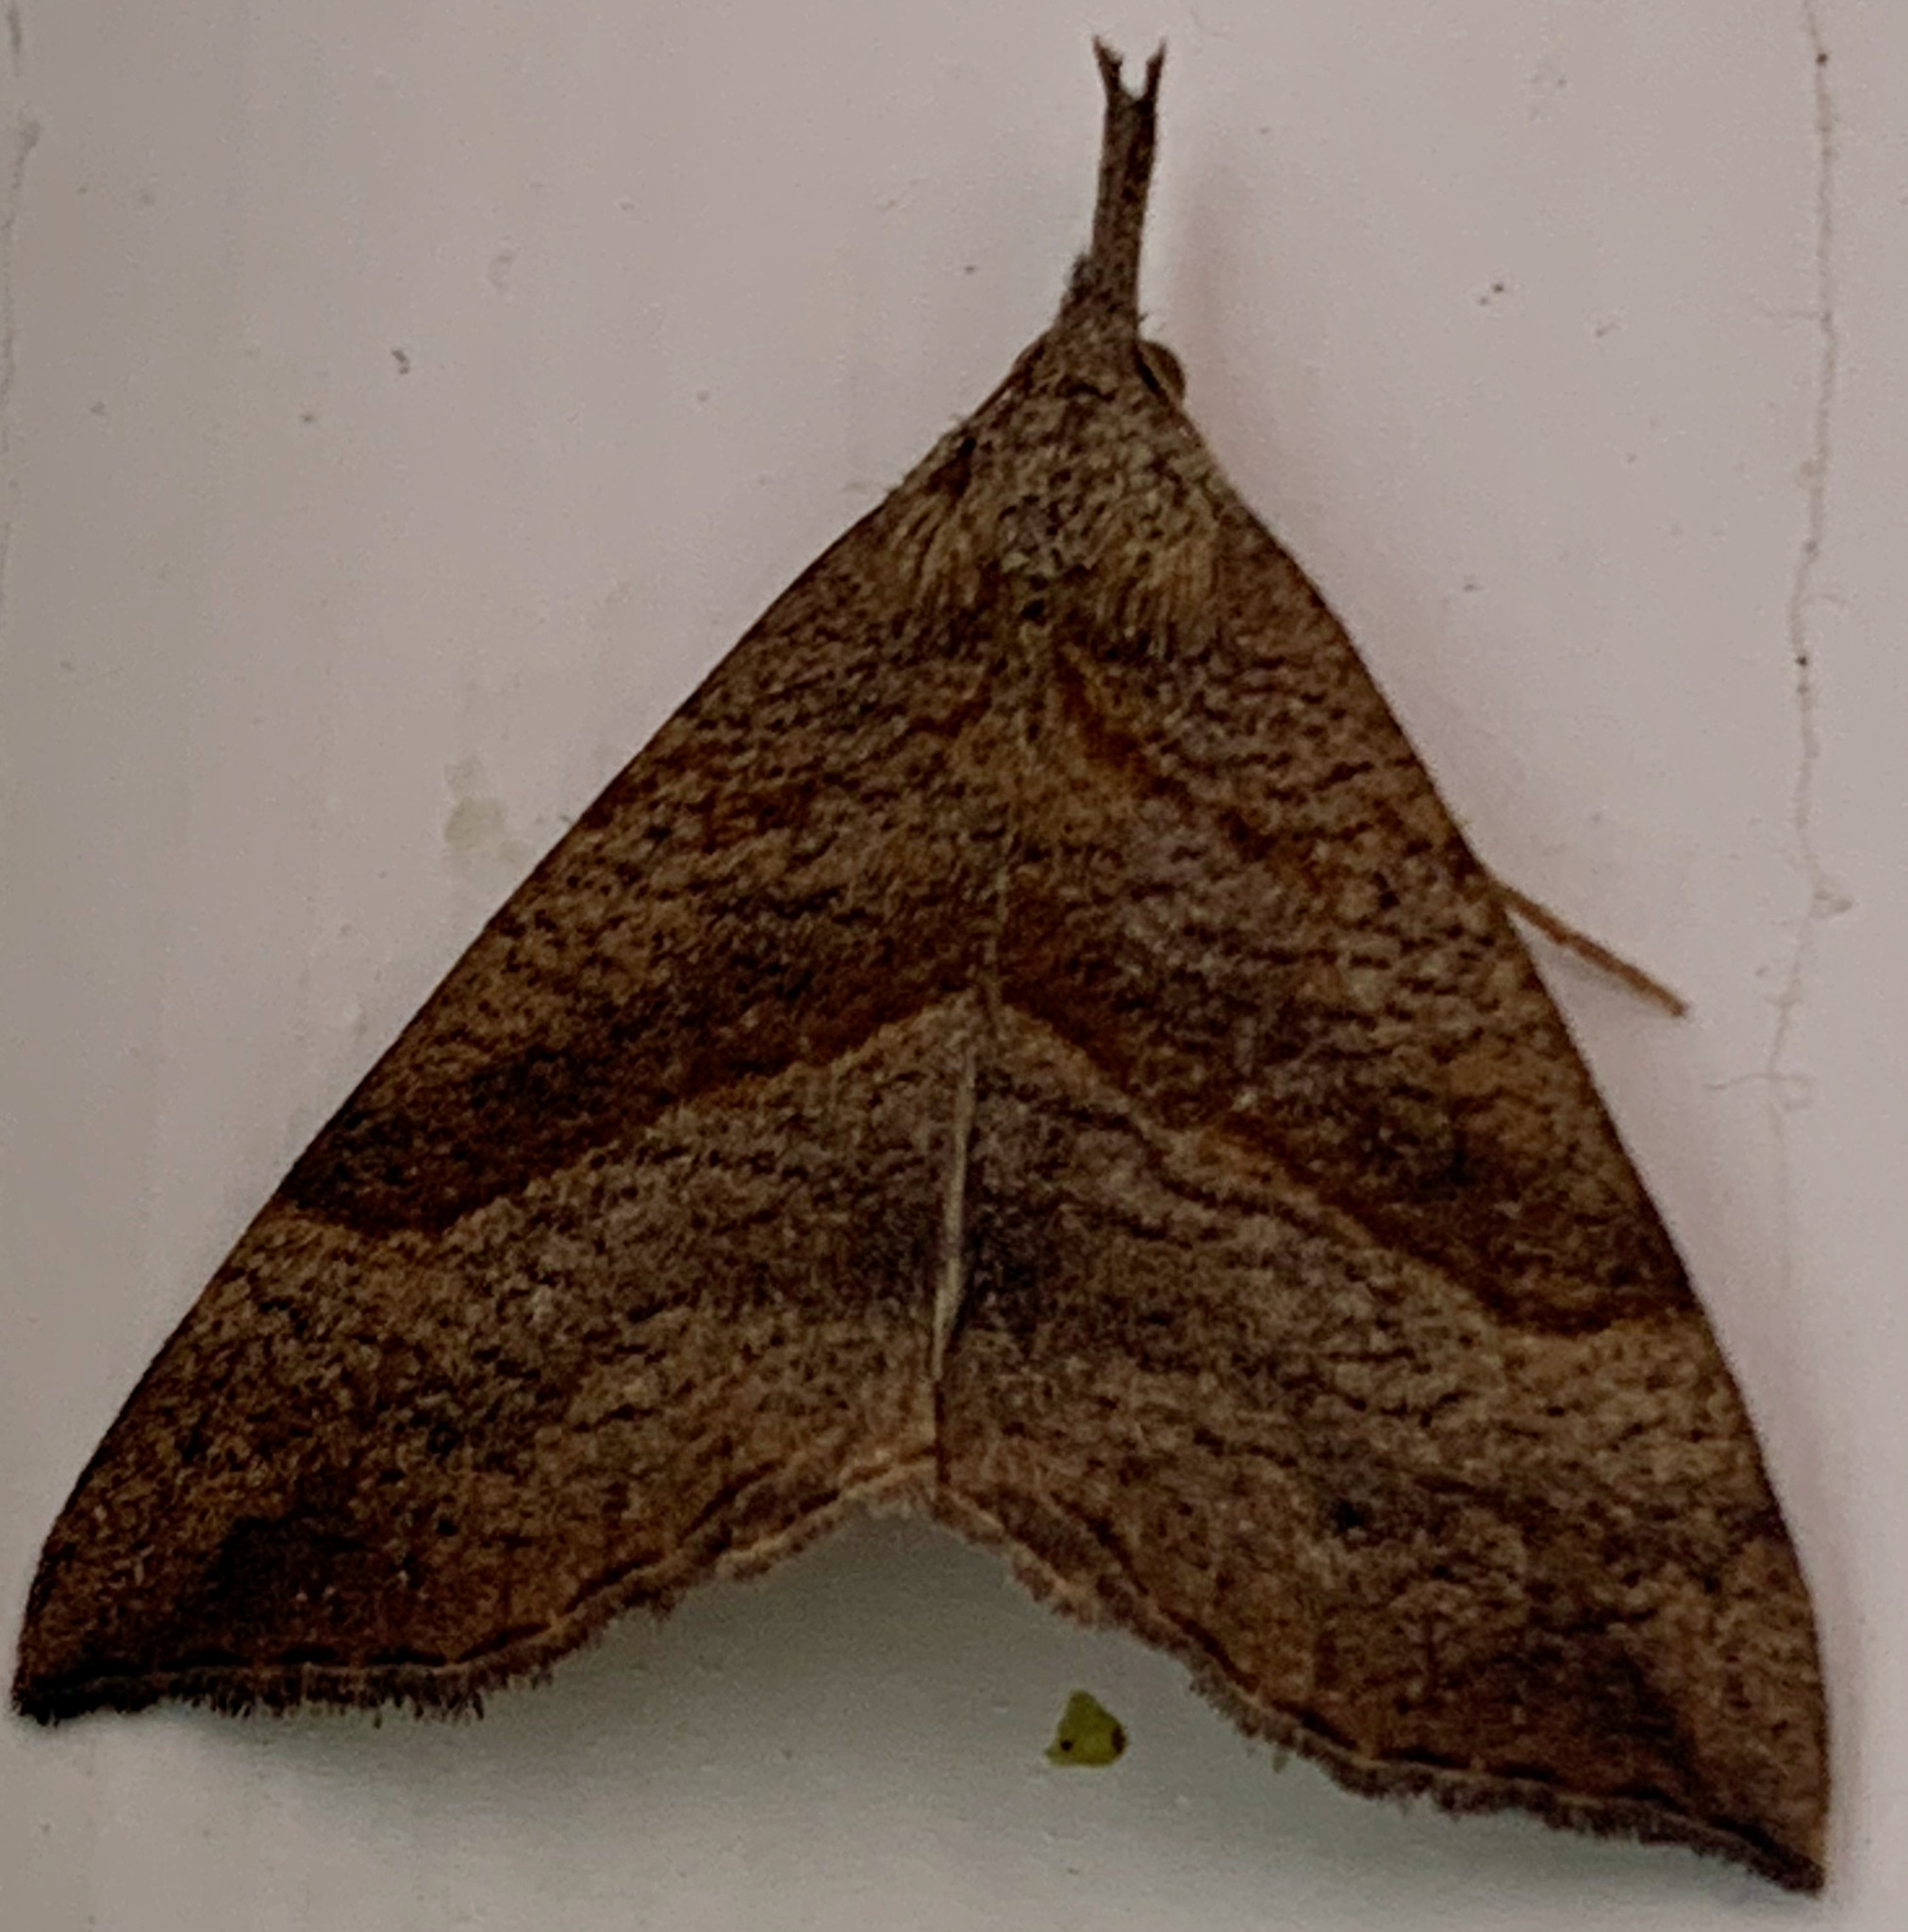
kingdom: Animalia
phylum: Arthropoda
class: Insecta
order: Lepidoptera
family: Erebidae
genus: Hypena
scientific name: Hypena proboscidalis
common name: Snout
